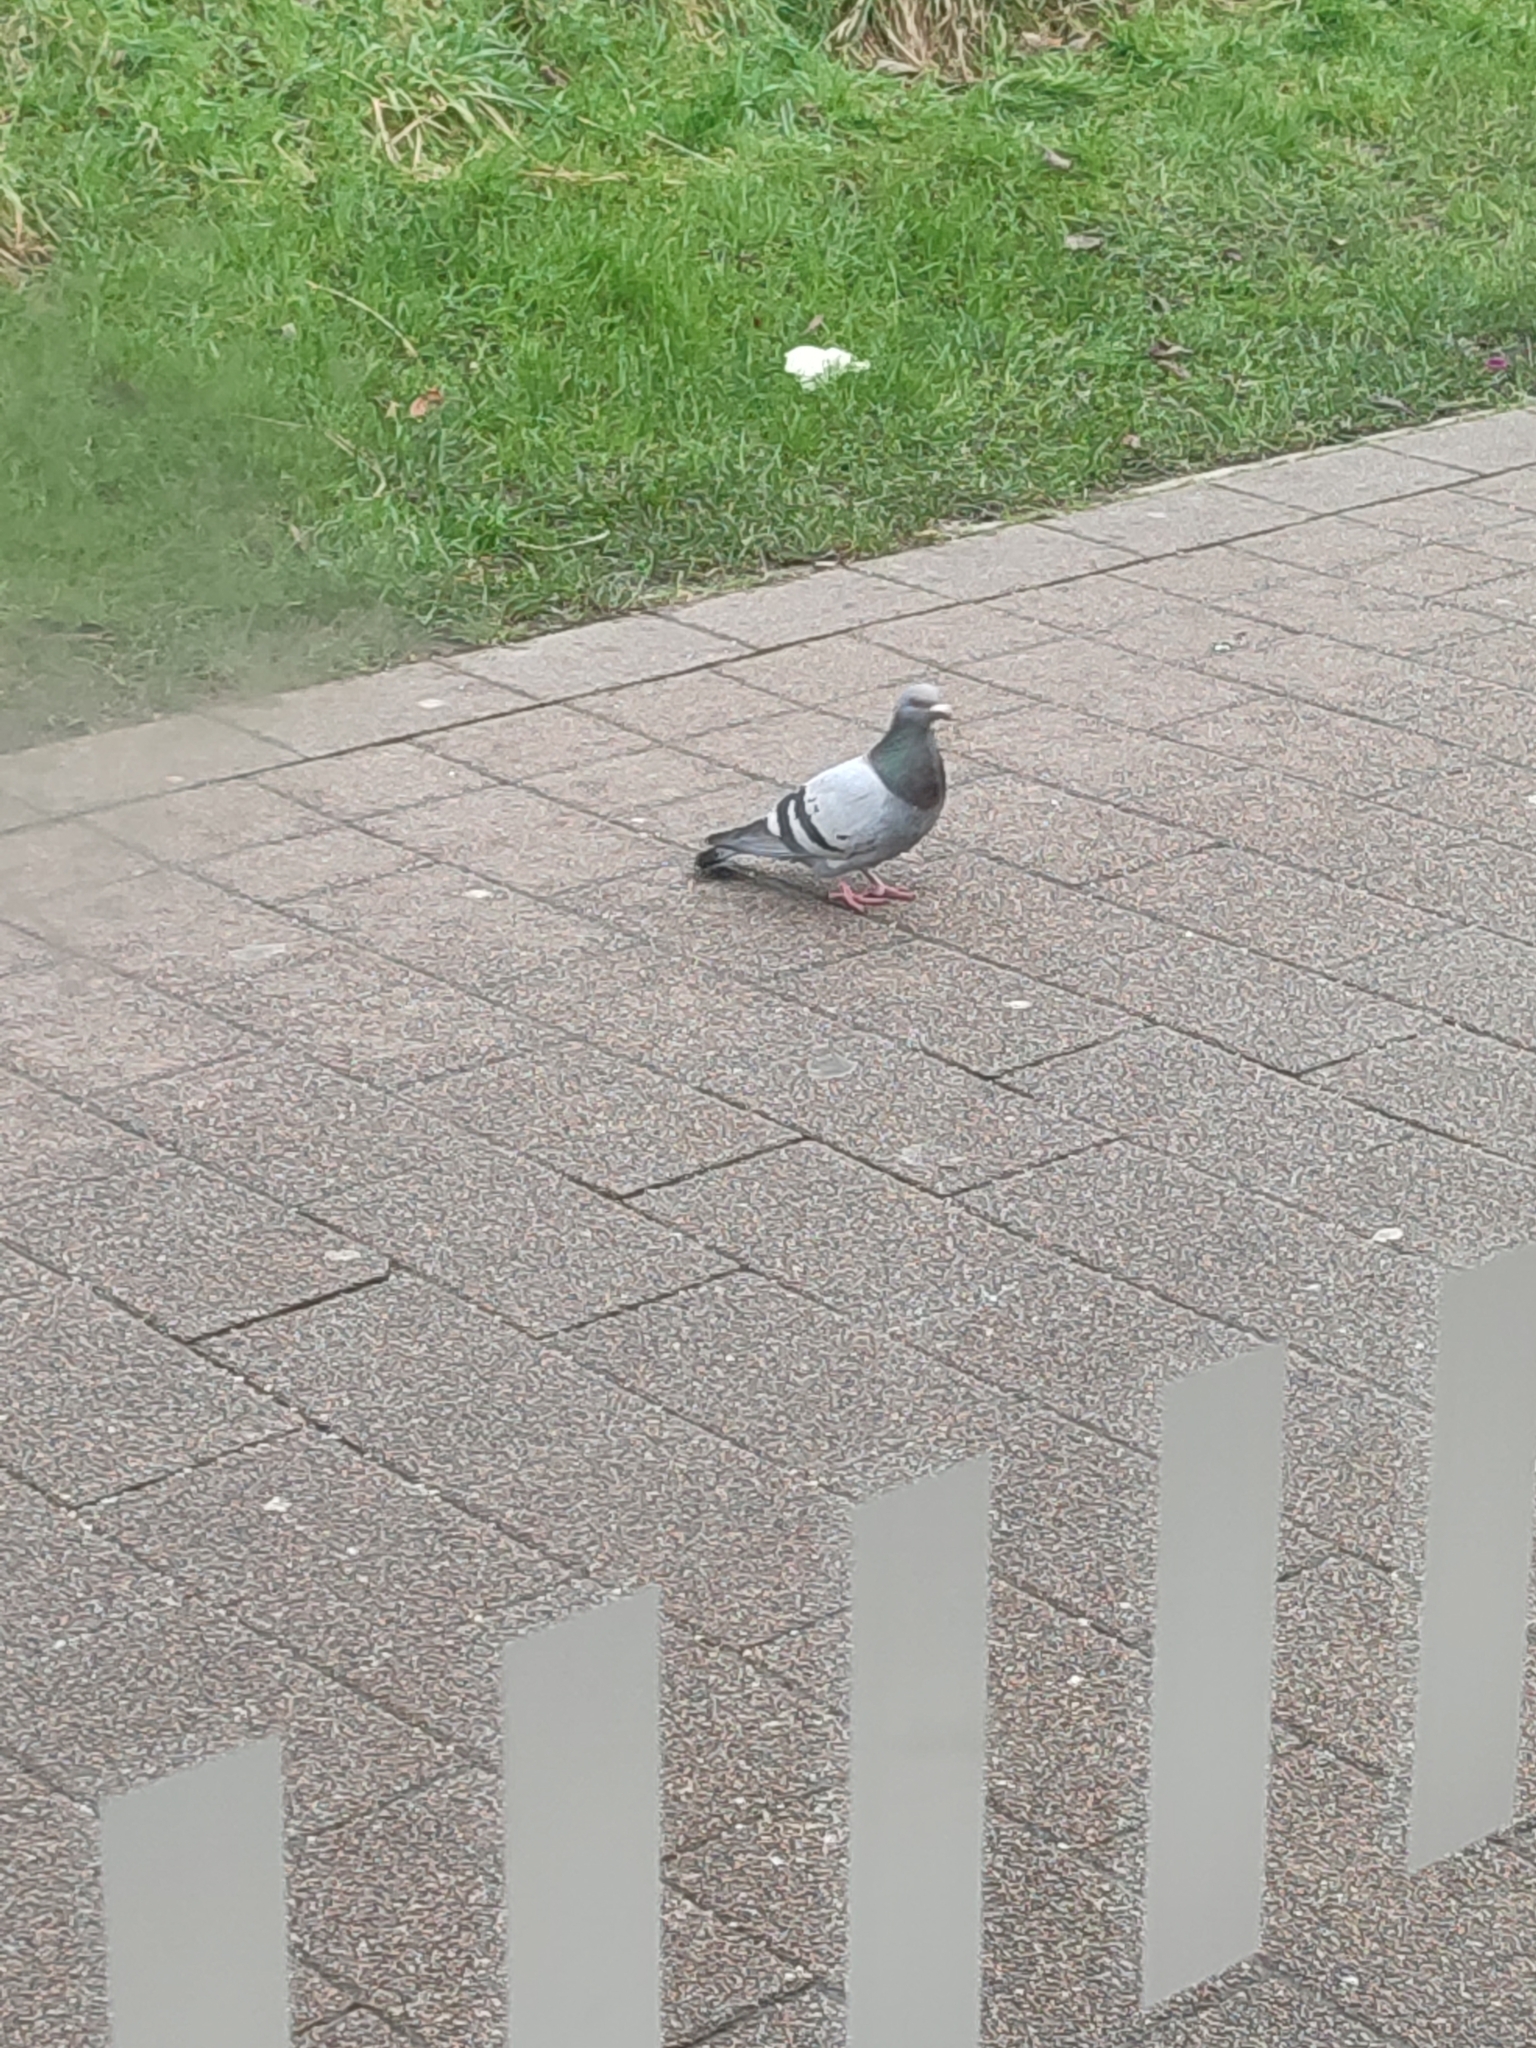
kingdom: Animalia
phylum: Chordata
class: Aves
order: Columbiformes
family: Columbidae
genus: Columba
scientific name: Columba livia
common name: Rock pigeon
